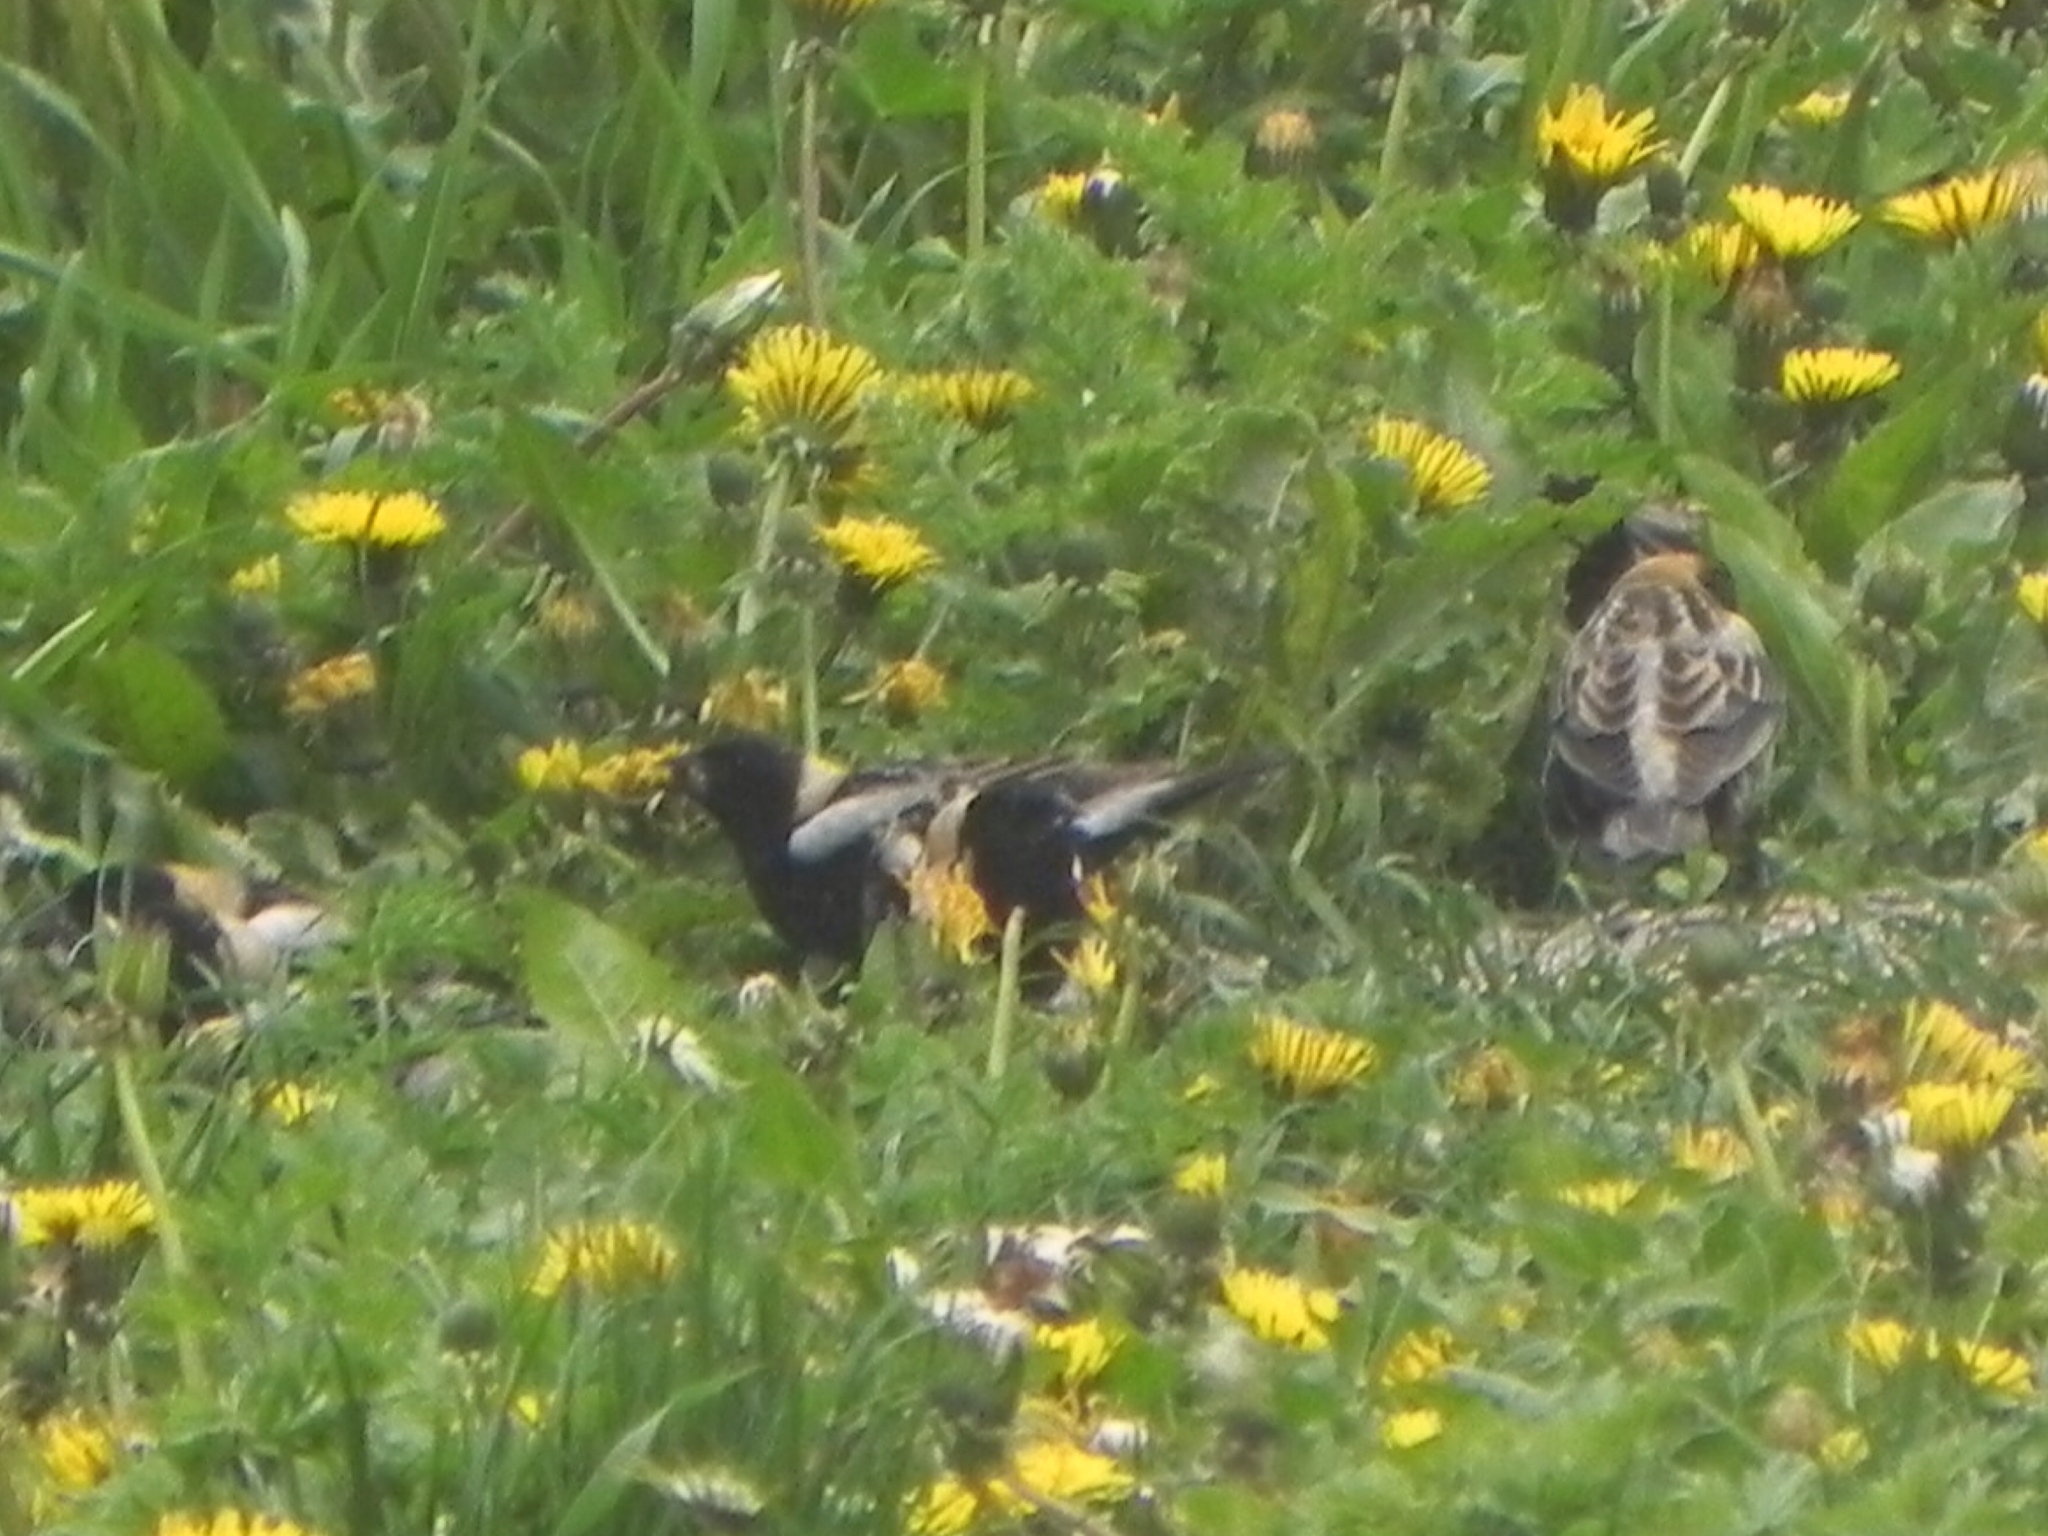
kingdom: Animalia
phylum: Chordata
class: Aves
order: Passeriformes
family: Icteridae
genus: Dolichonyx
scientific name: Dolichonyx oryzivorus
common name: Bobolink
